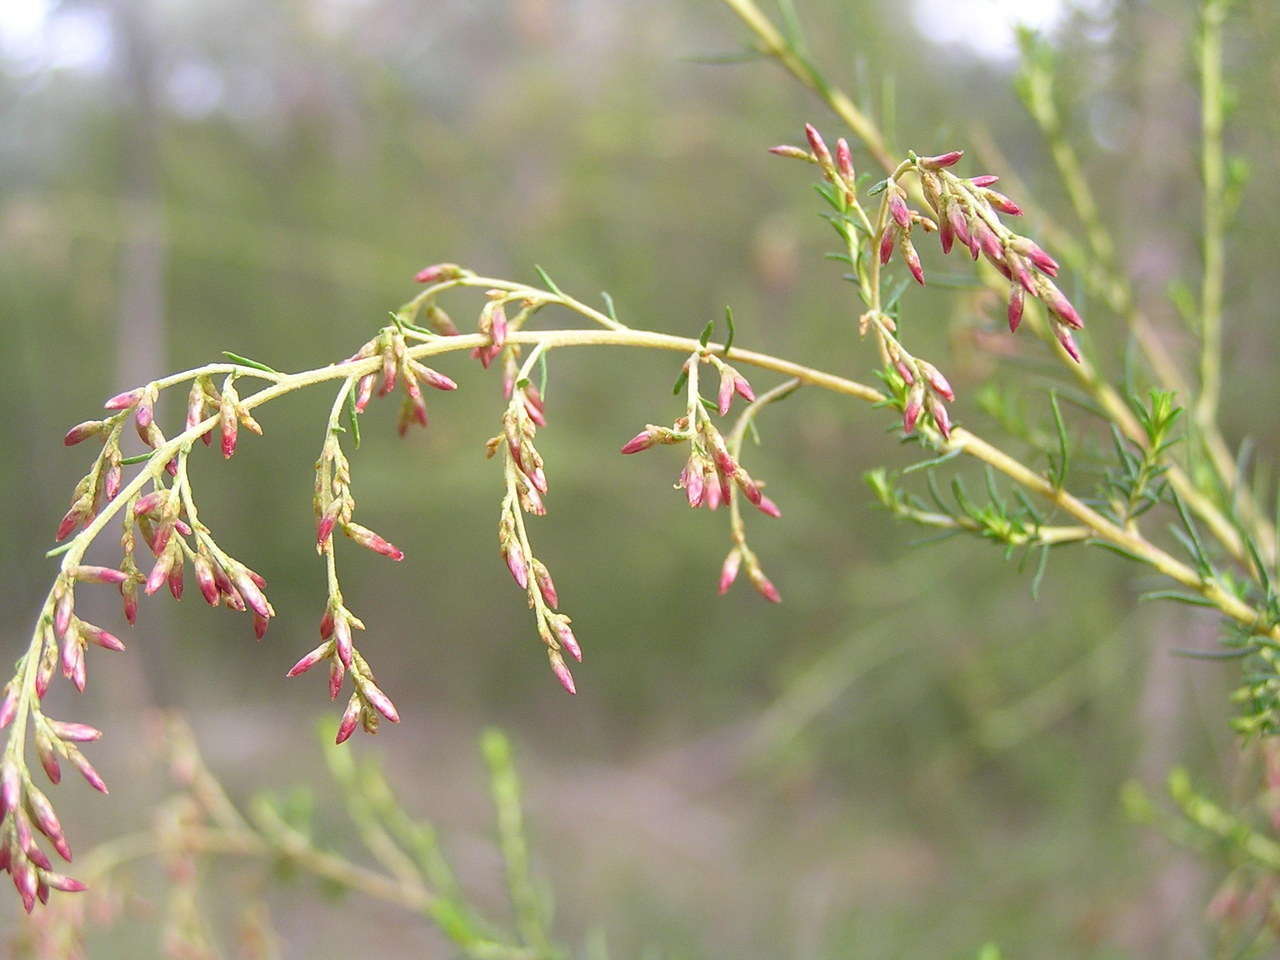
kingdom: Plantae
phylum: Tracheophyta
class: Magnoliopsida
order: Asterales
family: Asteraceae
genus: Cassinia
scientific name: Cassinia sifton
